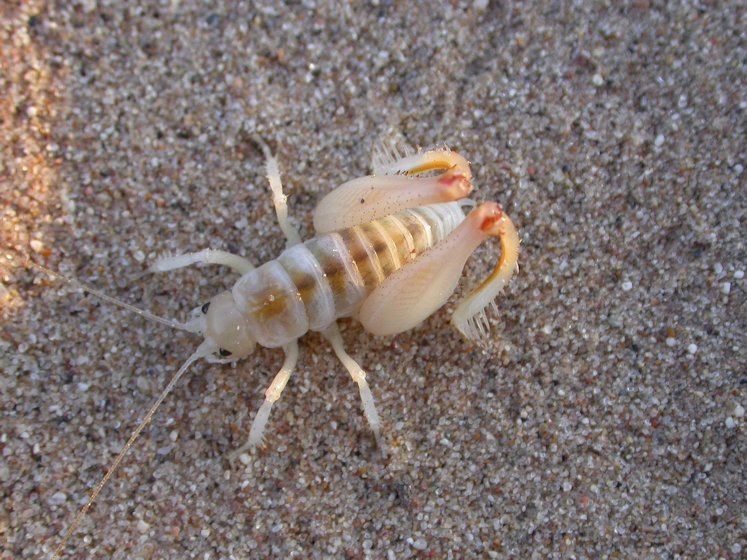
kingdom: Animalia
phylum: Arthropoda
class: Insecta
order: Orthoptera
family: Rhaphidophoridae
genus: Macrobaenetes
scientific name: Macrobaenetes algodonensis
